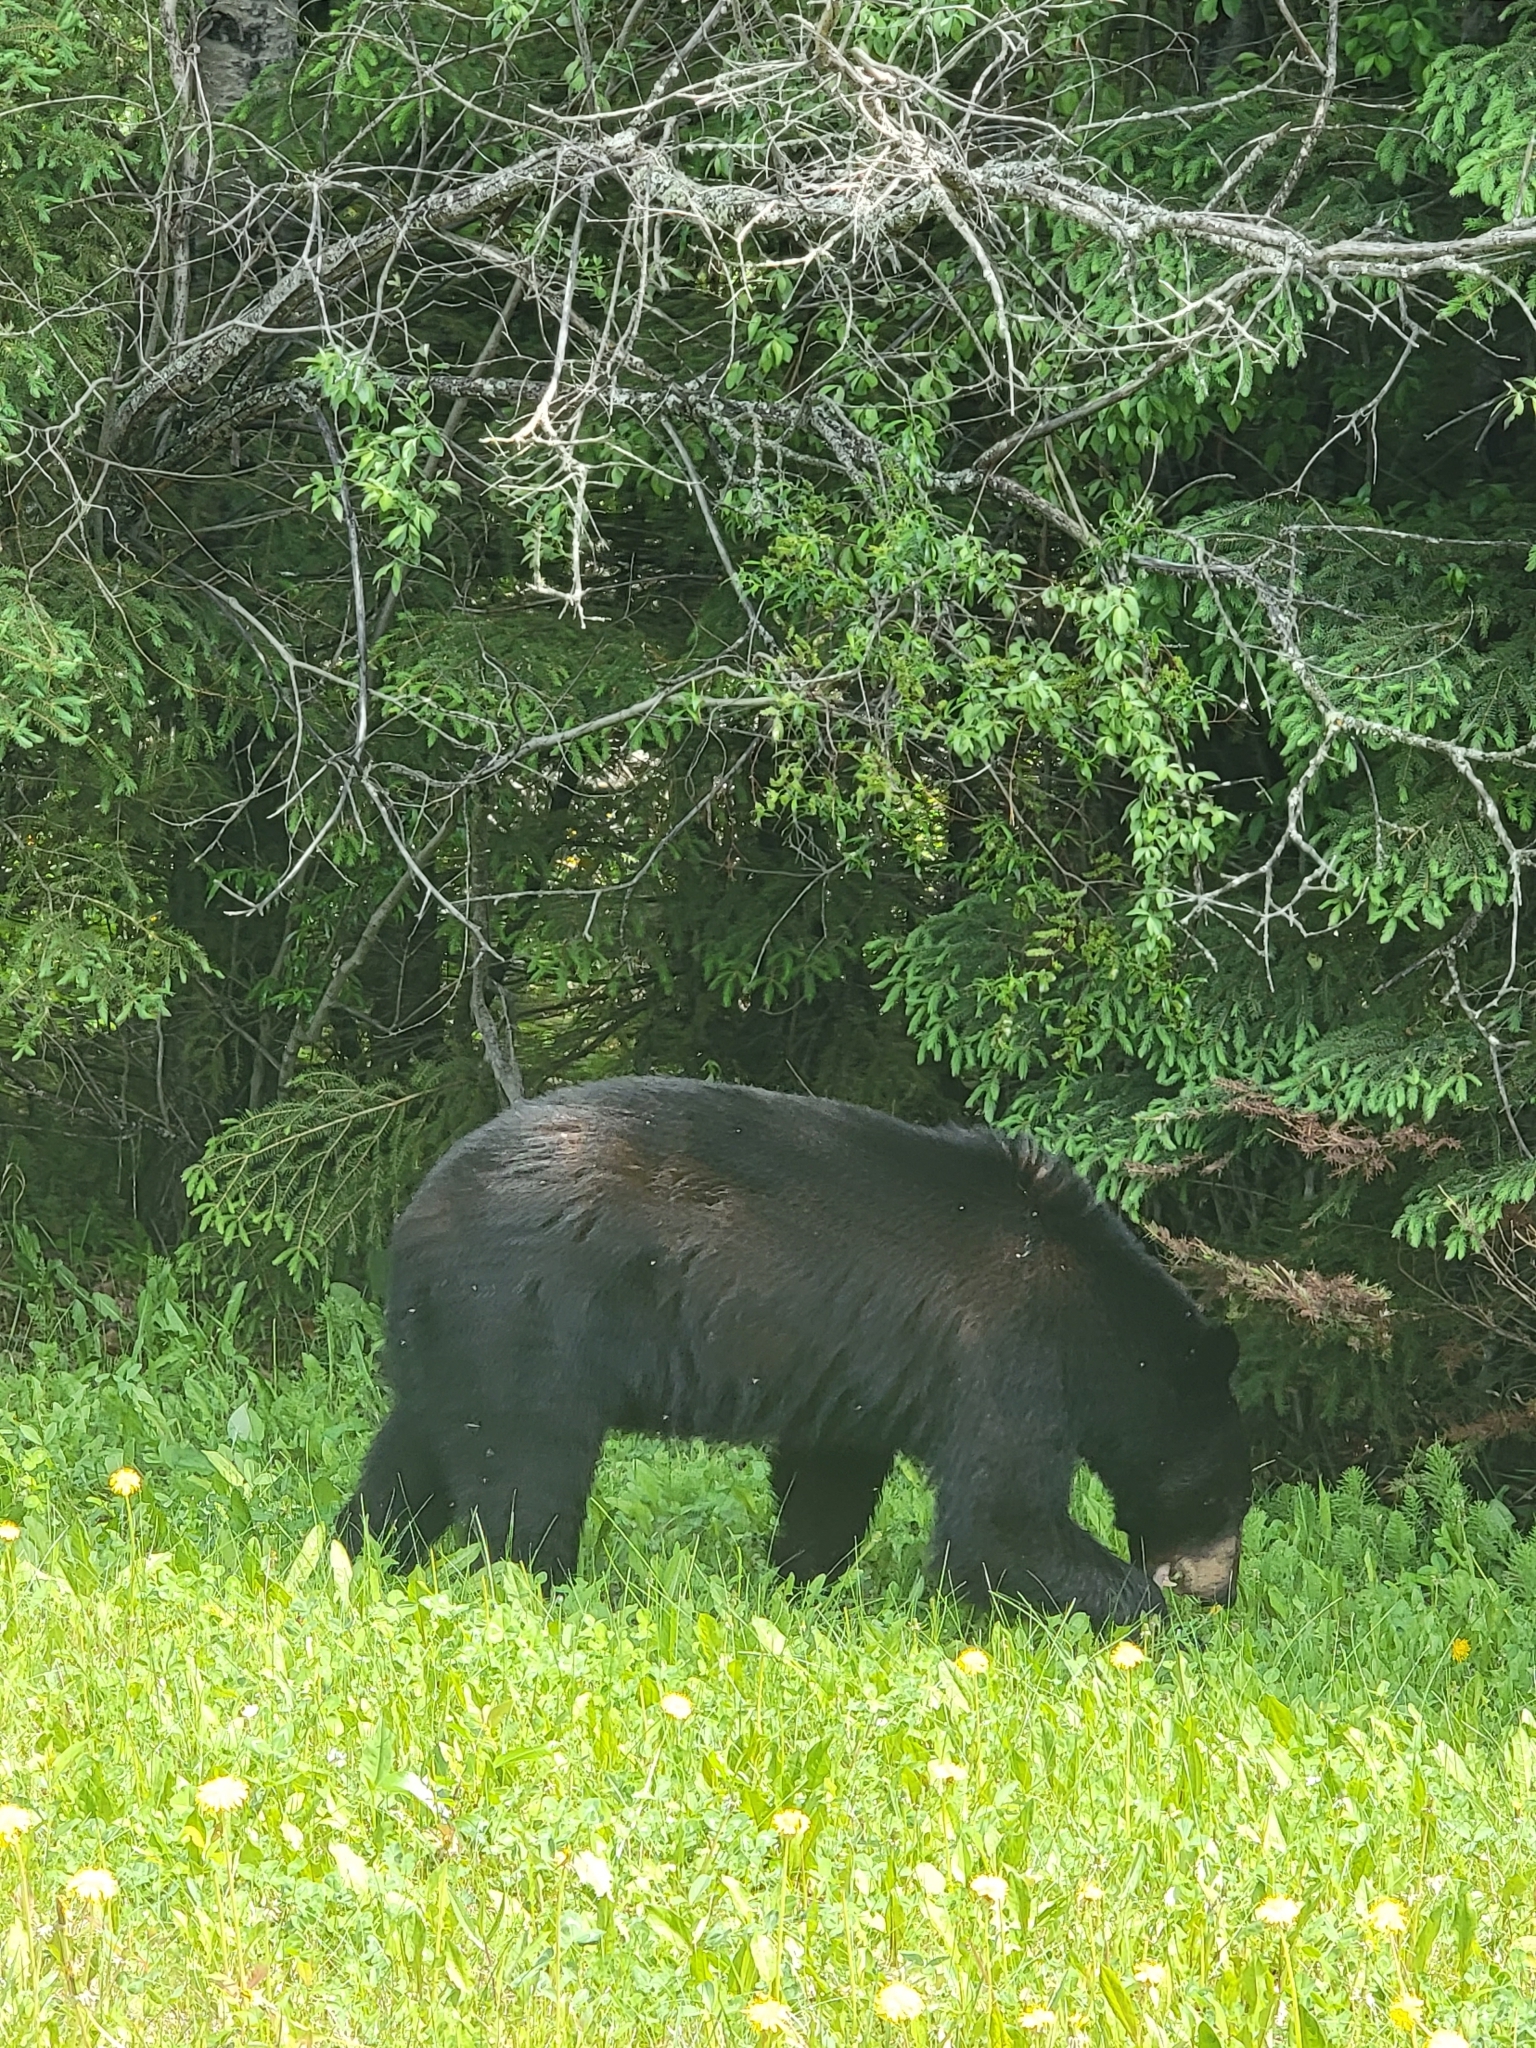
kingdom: Animalia
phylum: Chordata
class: Mammalia
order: Carnivora
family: Ursidae
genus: Ursus
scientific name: Ursus americanus
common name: American black bear
